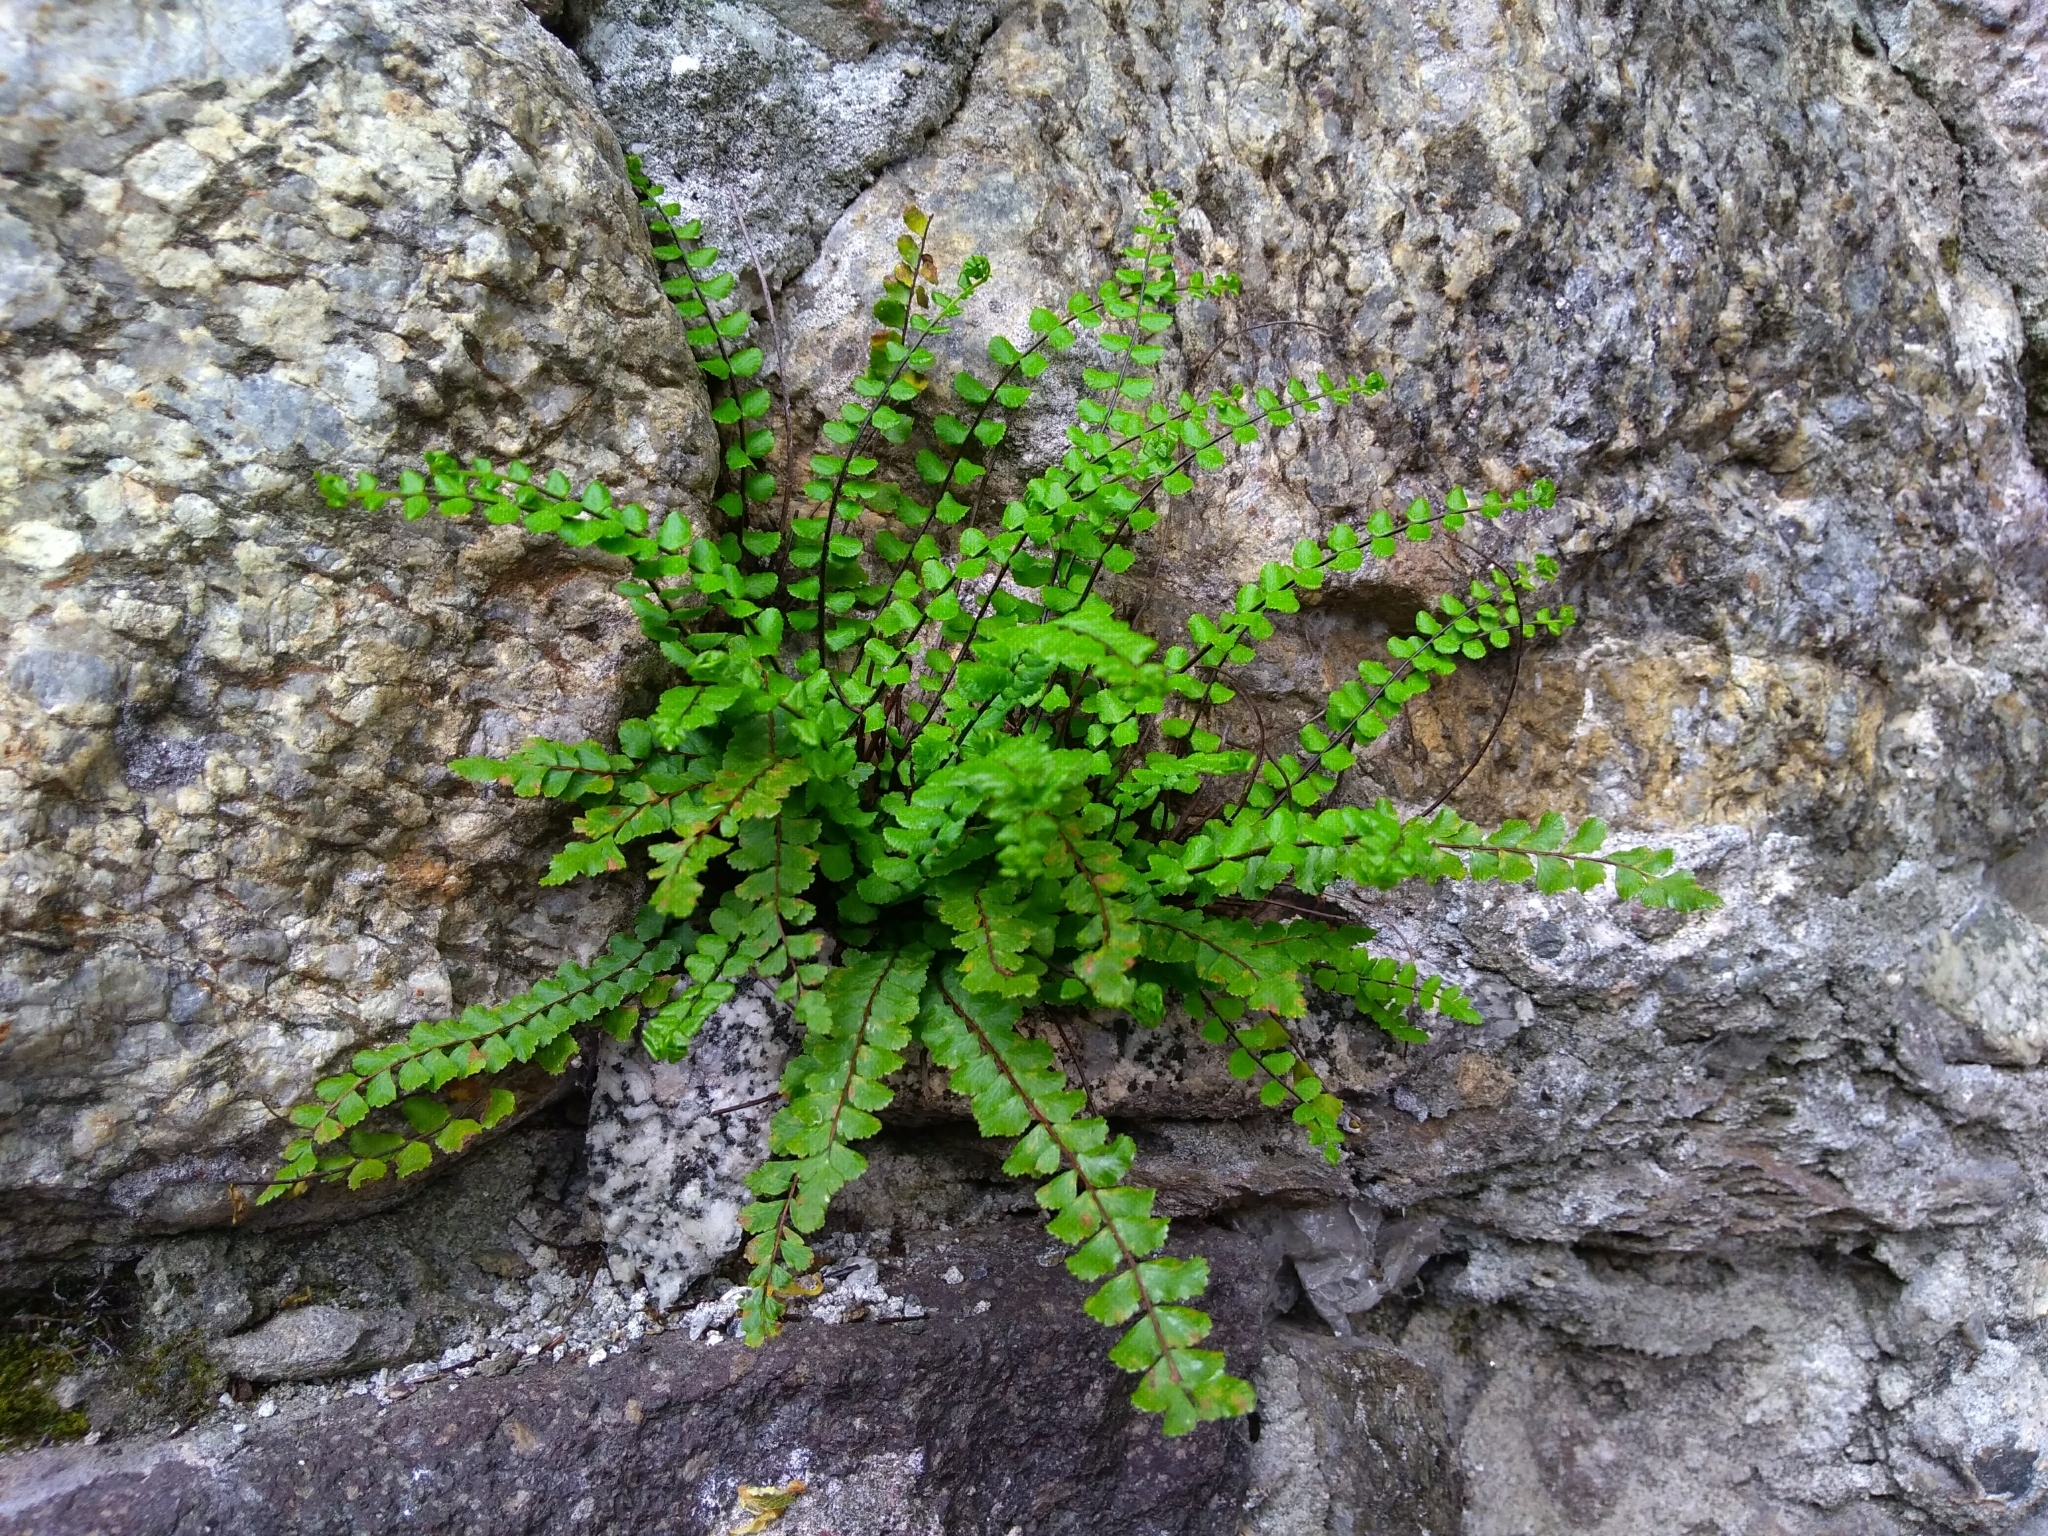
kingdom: Plantae
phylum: Tracheophyta
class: Polypodiopsida
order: Polypodiales
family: Aspleniaceae
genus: Asplenium
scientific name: Asplenium trichomanes
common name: Maidenhair spleenwort
